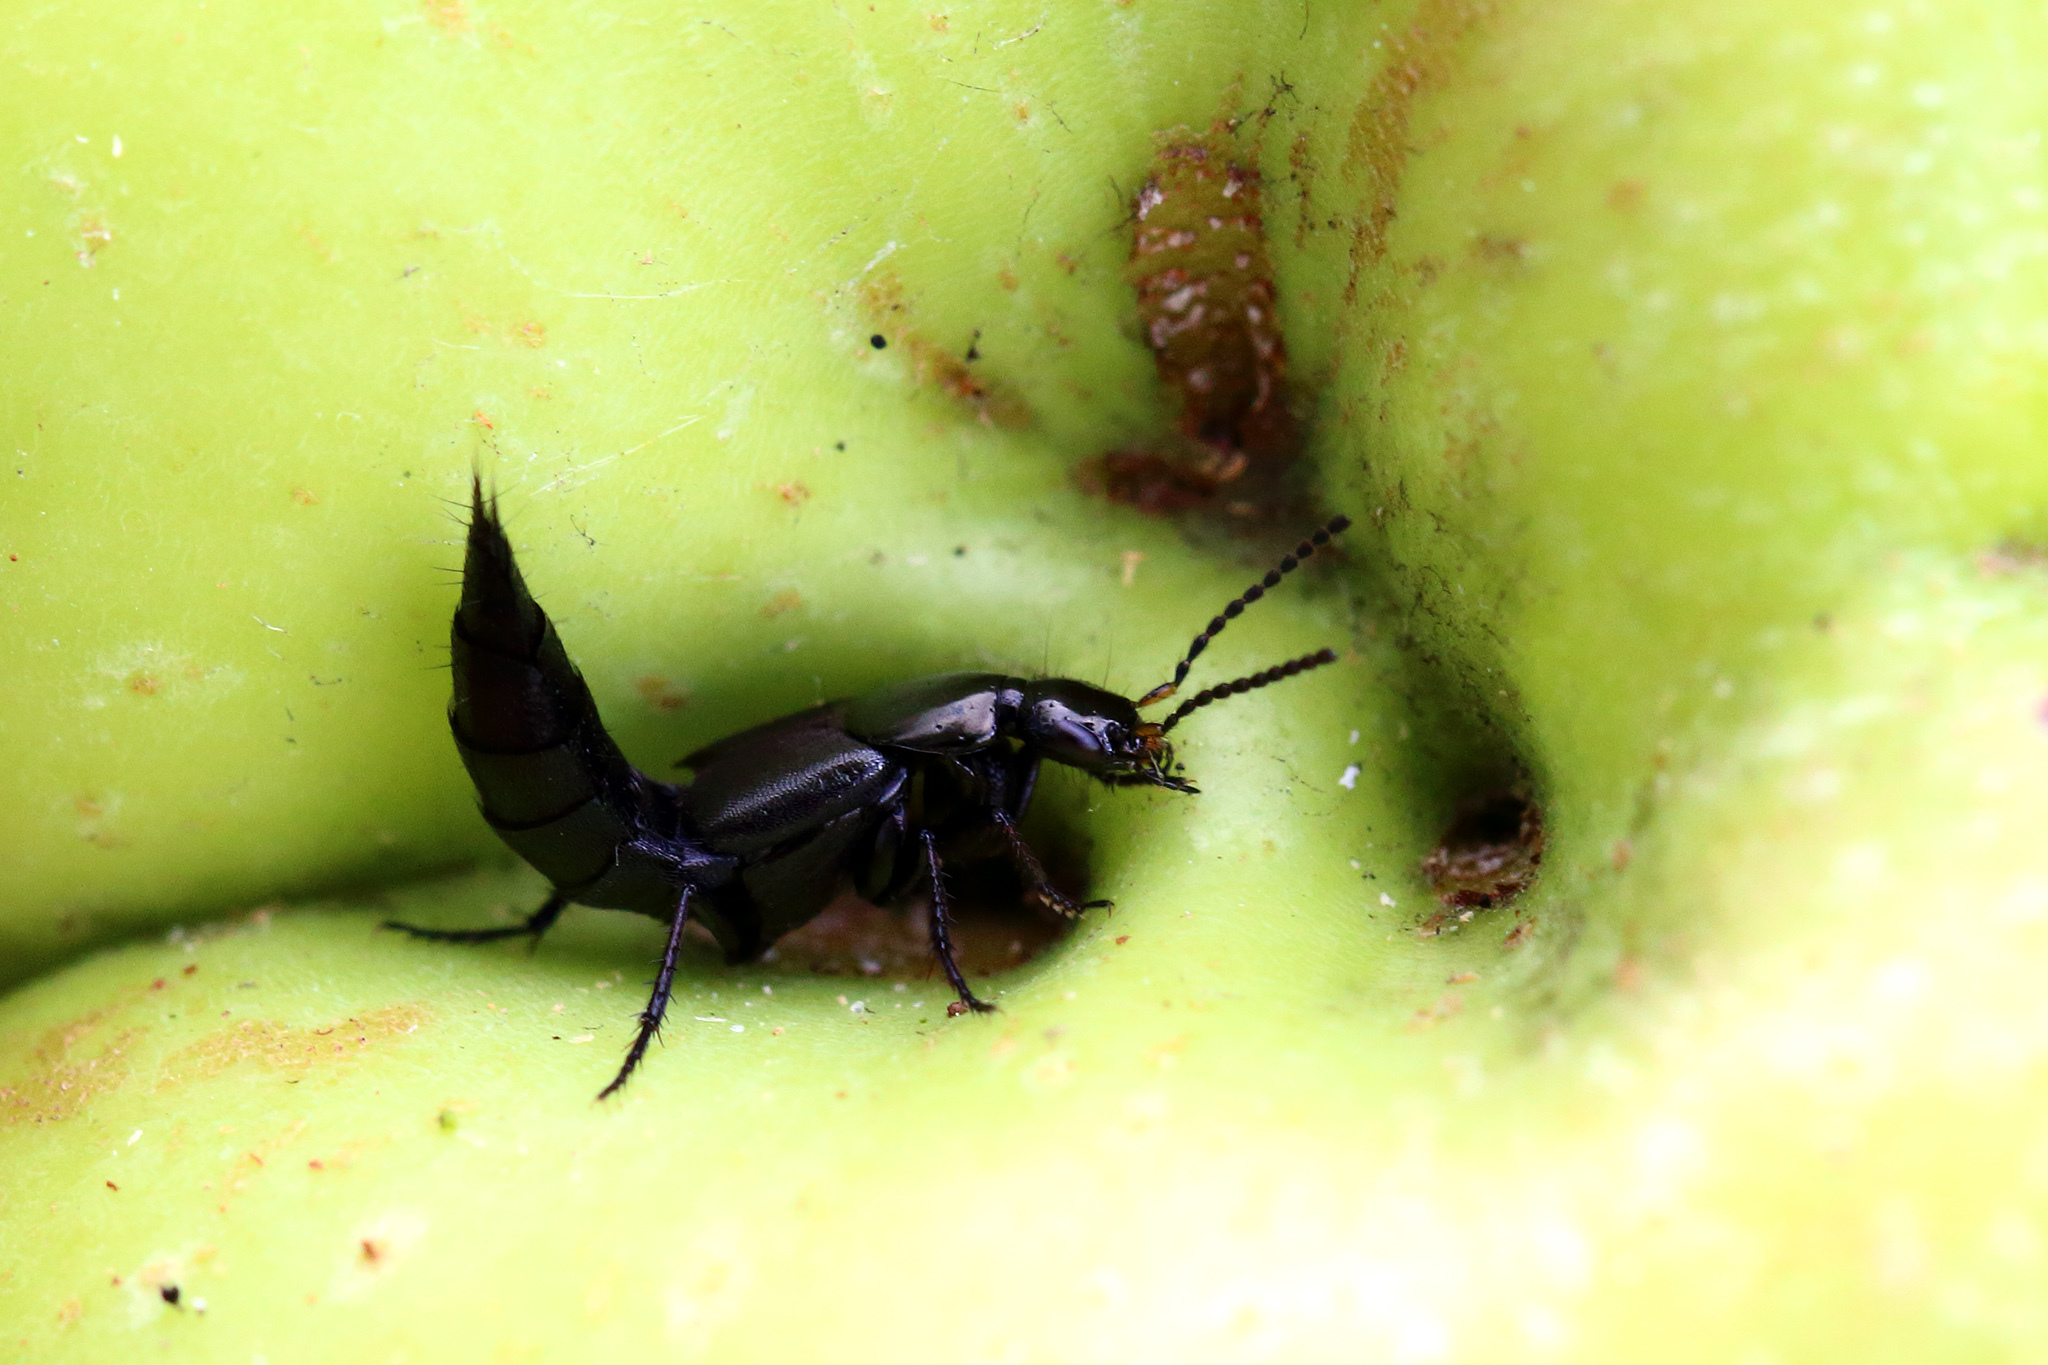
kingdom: Animalia
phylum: Arthropoda
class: Insecta
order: Coleoptera
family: Staphylinidae
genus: Philonthus
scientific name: Philonthus cognatus
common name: Staph beetle
